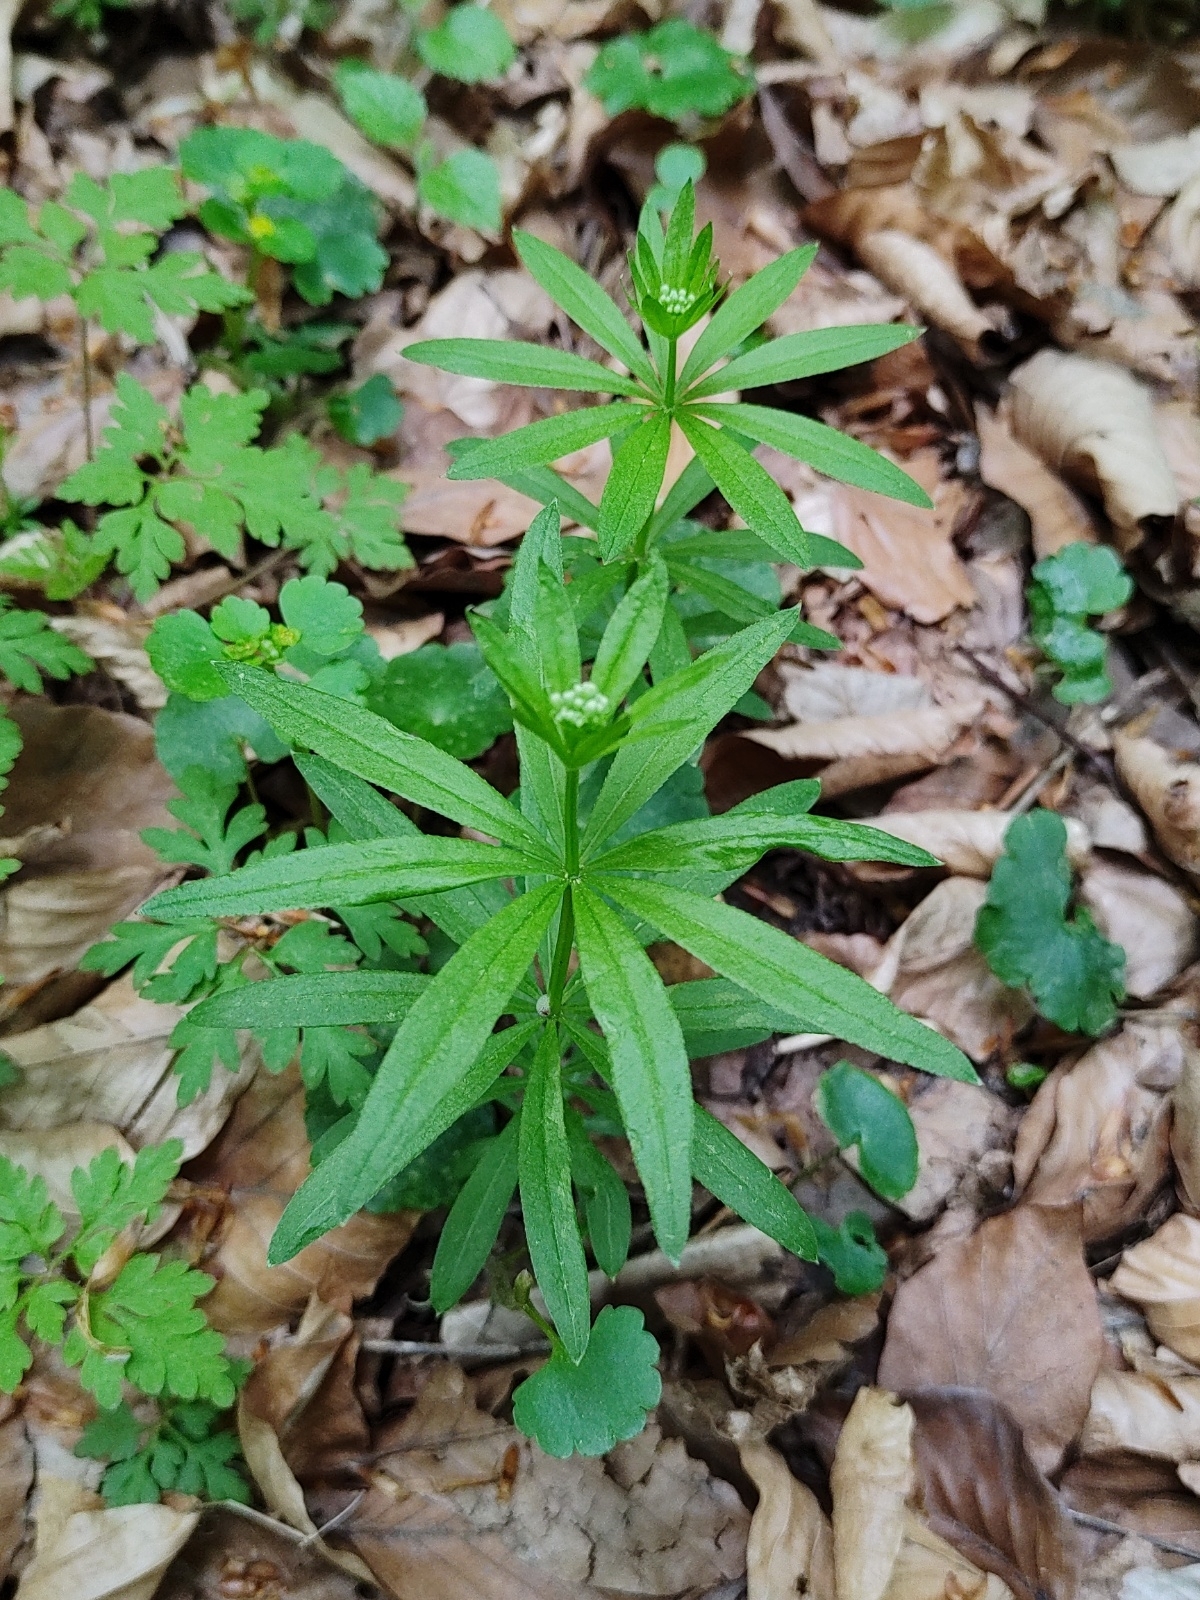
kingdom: Plantae
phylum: Tracheophyta
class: Magnoliopsida
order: Gentianales
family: Rubiaceae
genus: Galium
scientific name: Galium odoratum
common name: Sweet woodruff
